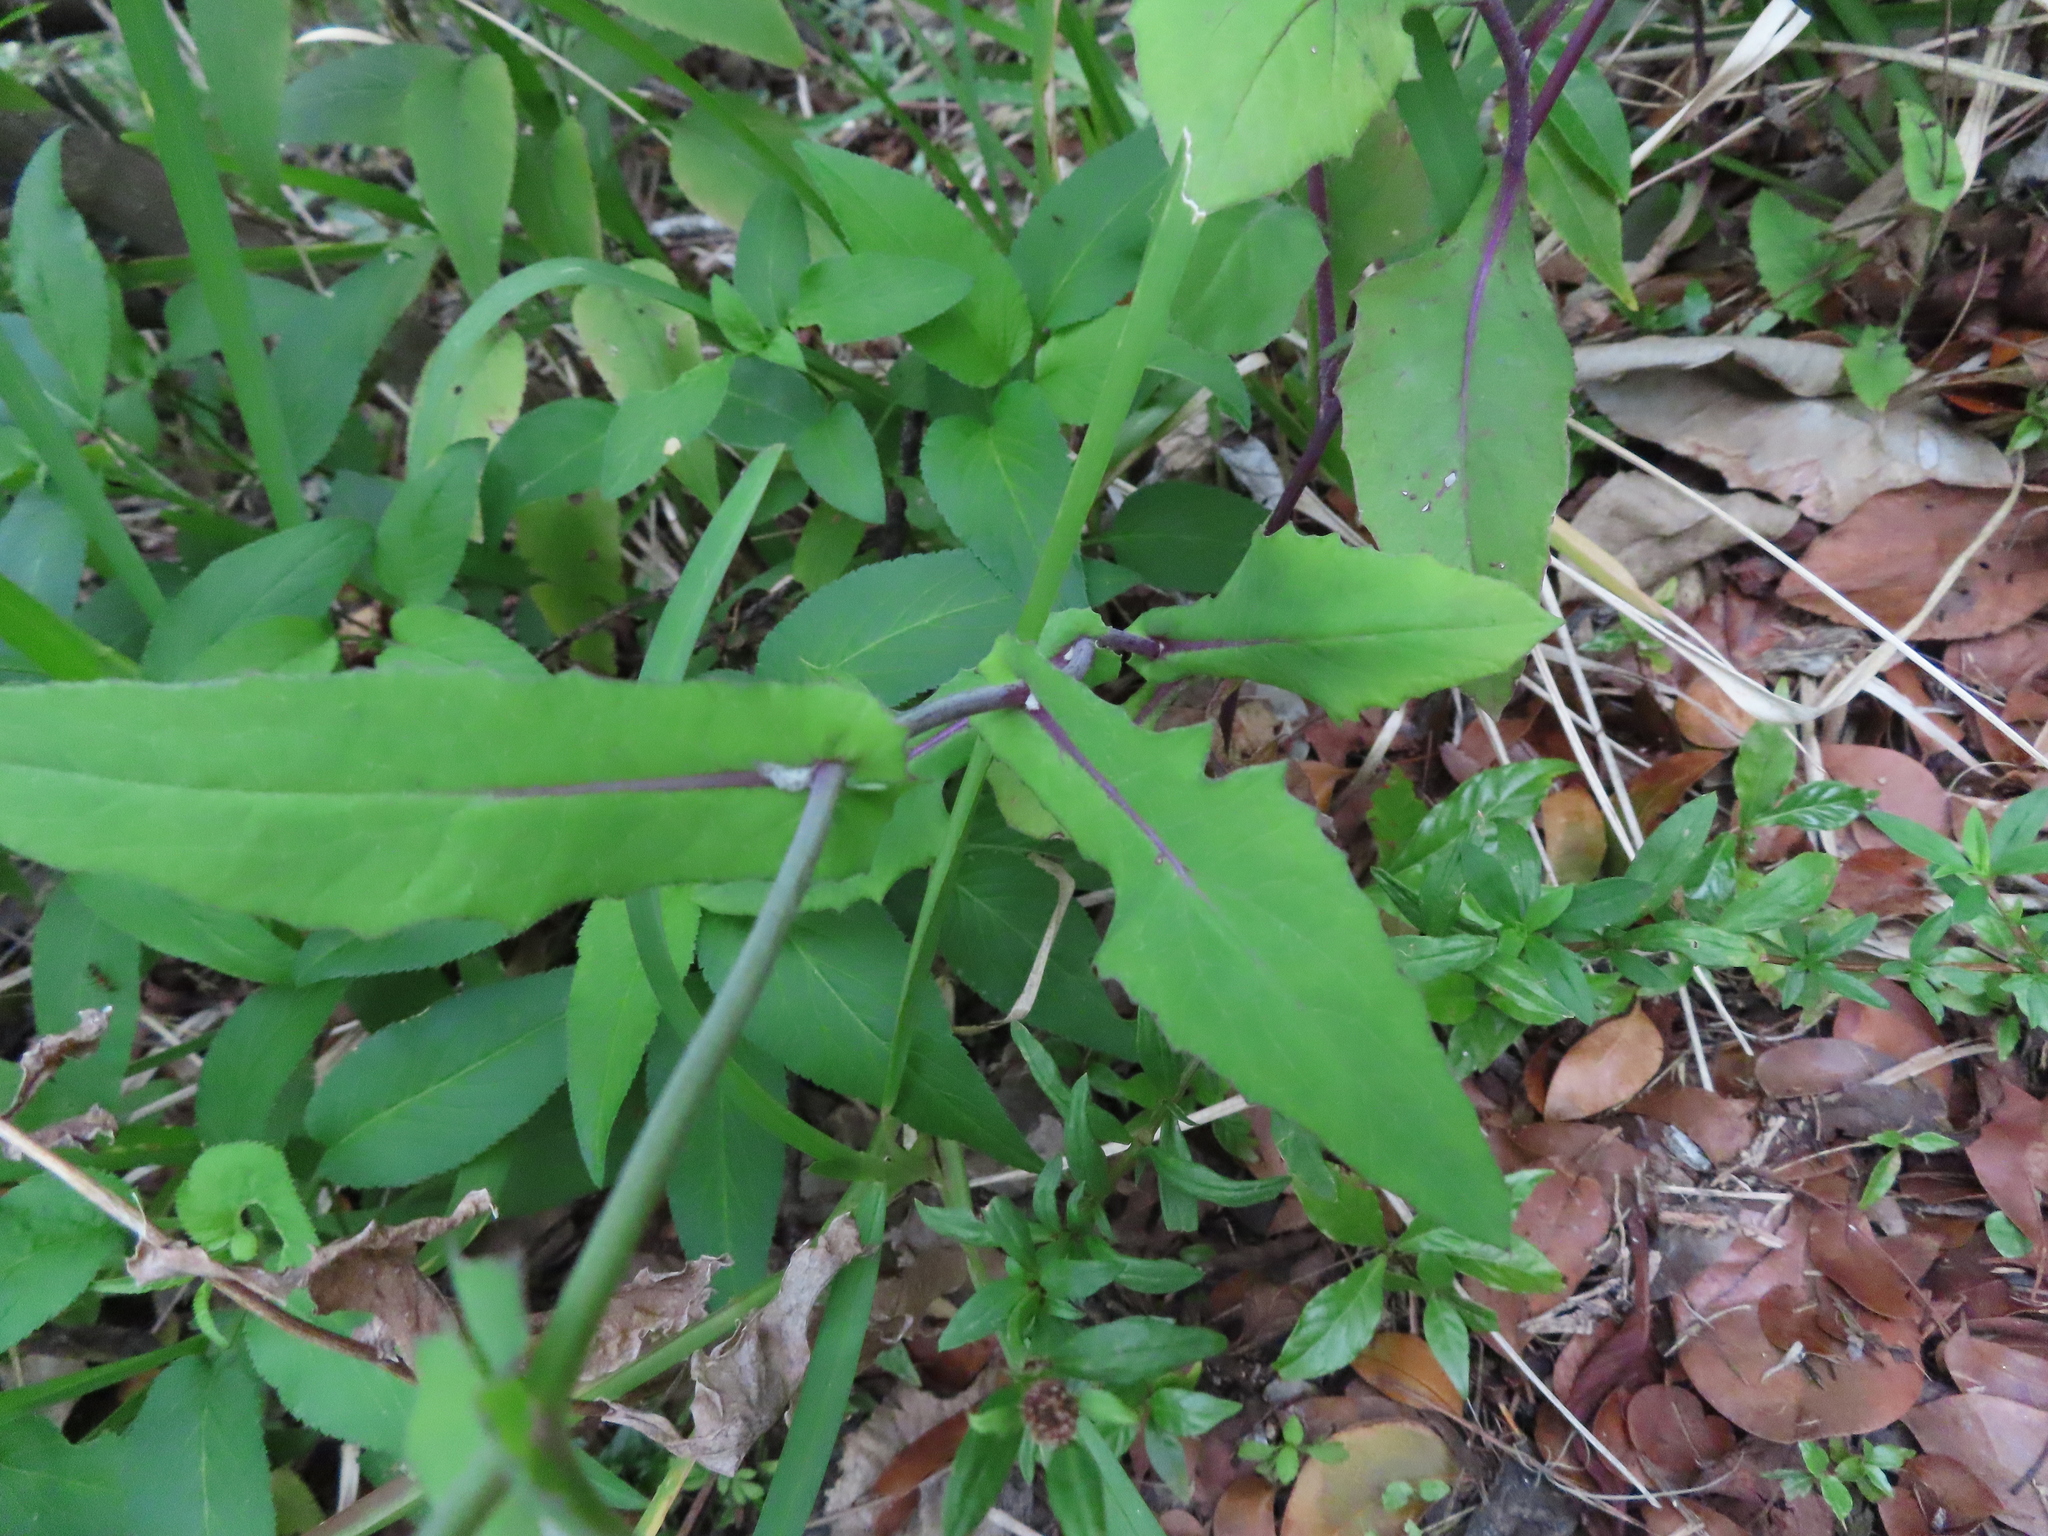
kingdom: Plantae
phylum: Tracheophyta
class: Magnoliopsida
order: Asterales
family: Asteraceae
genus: Emilia
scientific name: Emilia sonchifolia
